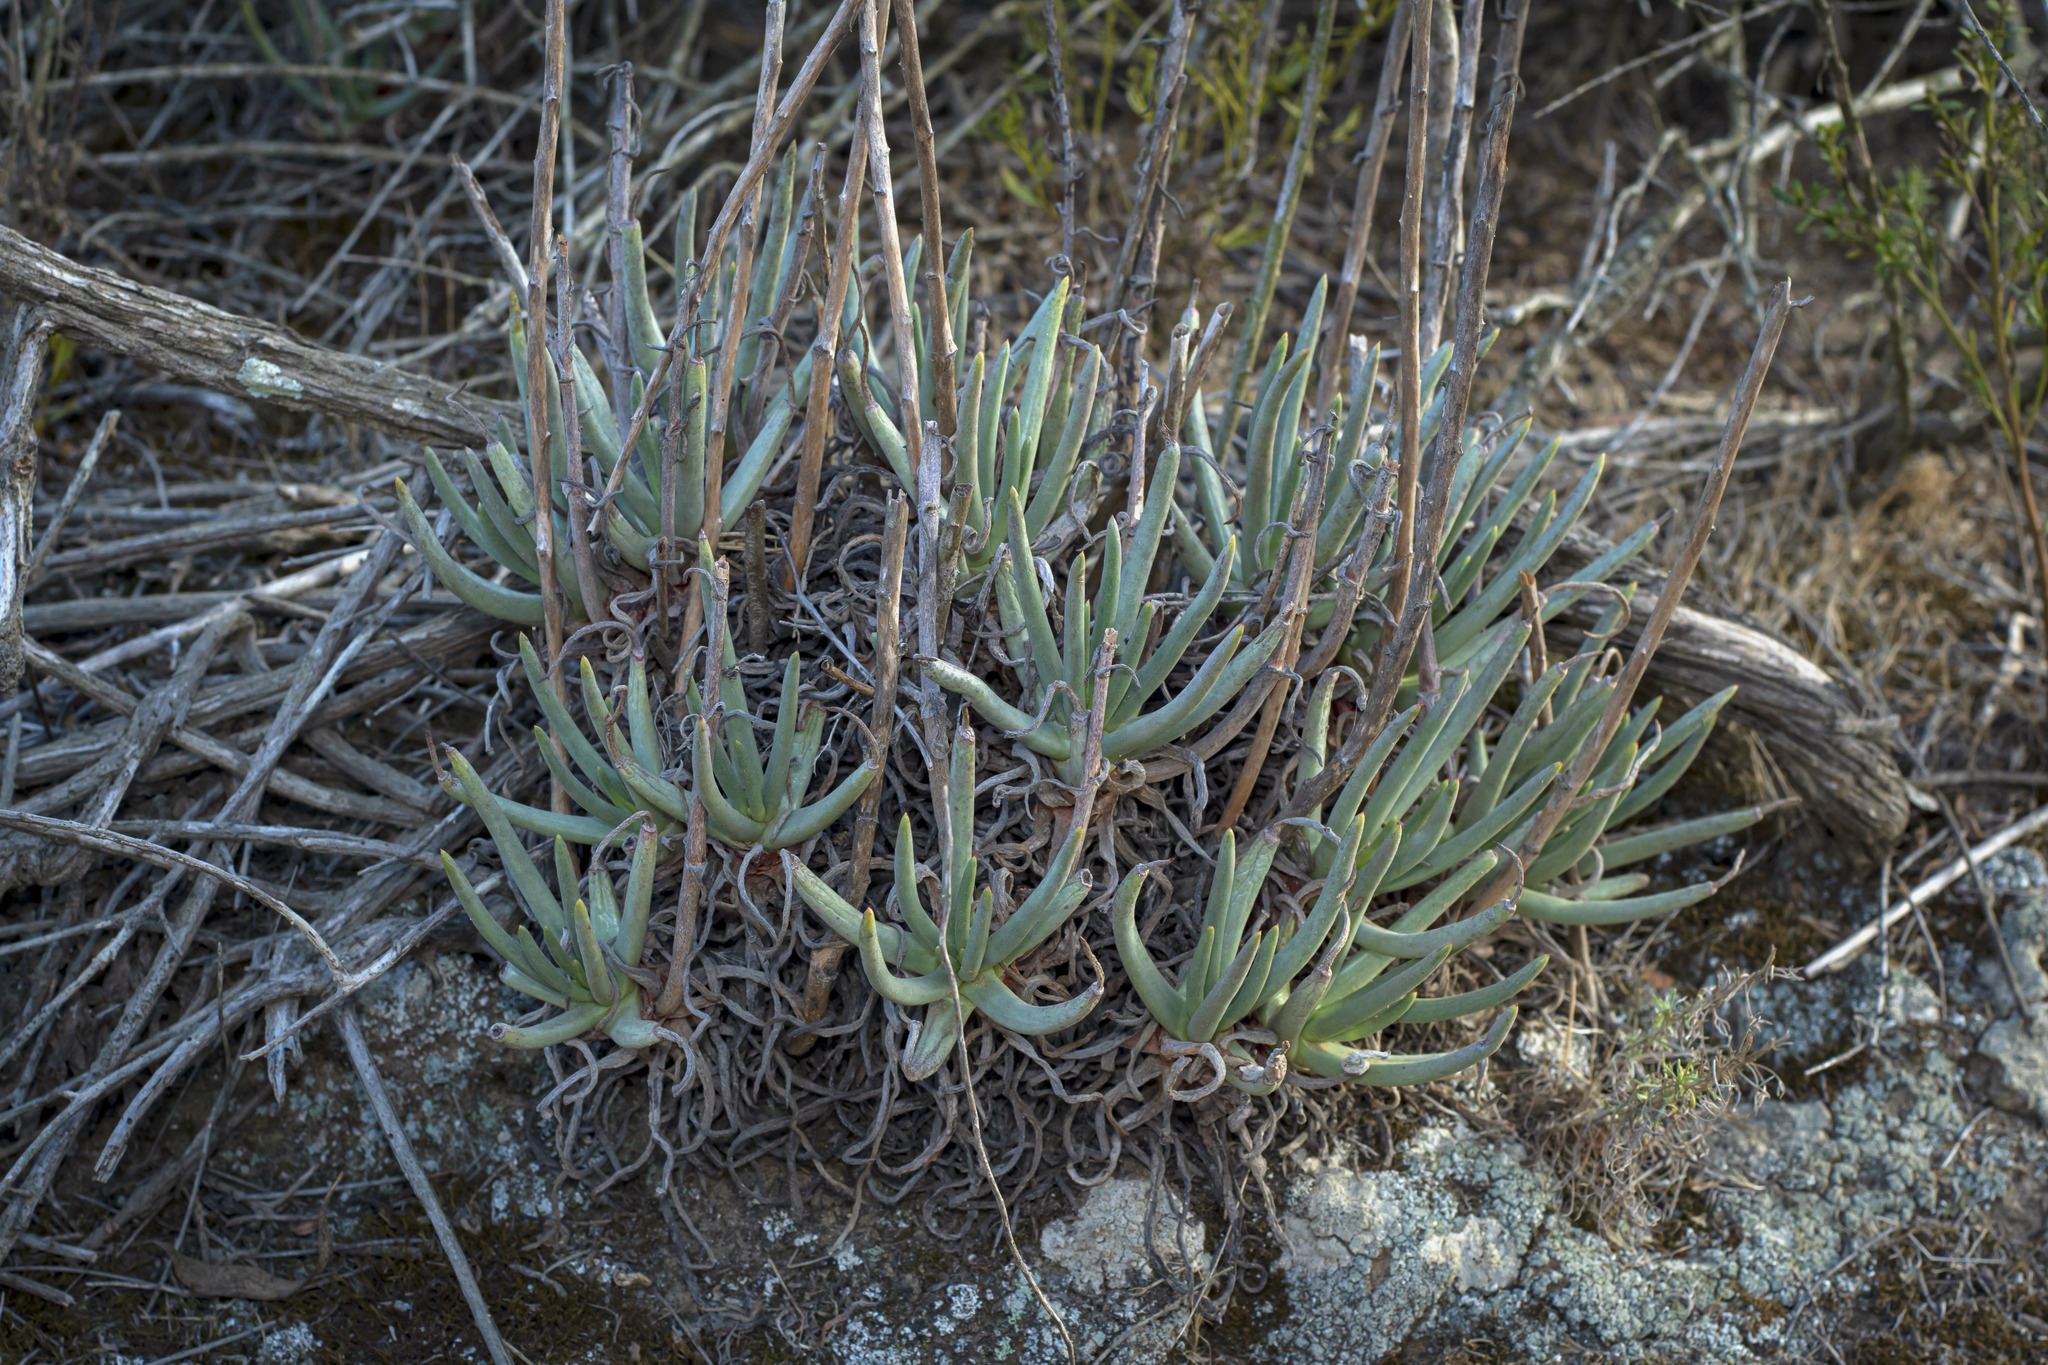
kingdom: Plantae
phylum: Tracheophyta
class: Magnoliopsida
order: Saxifragales
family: Crassulaceae
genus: Dudleya
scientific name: Dudleya edulis
